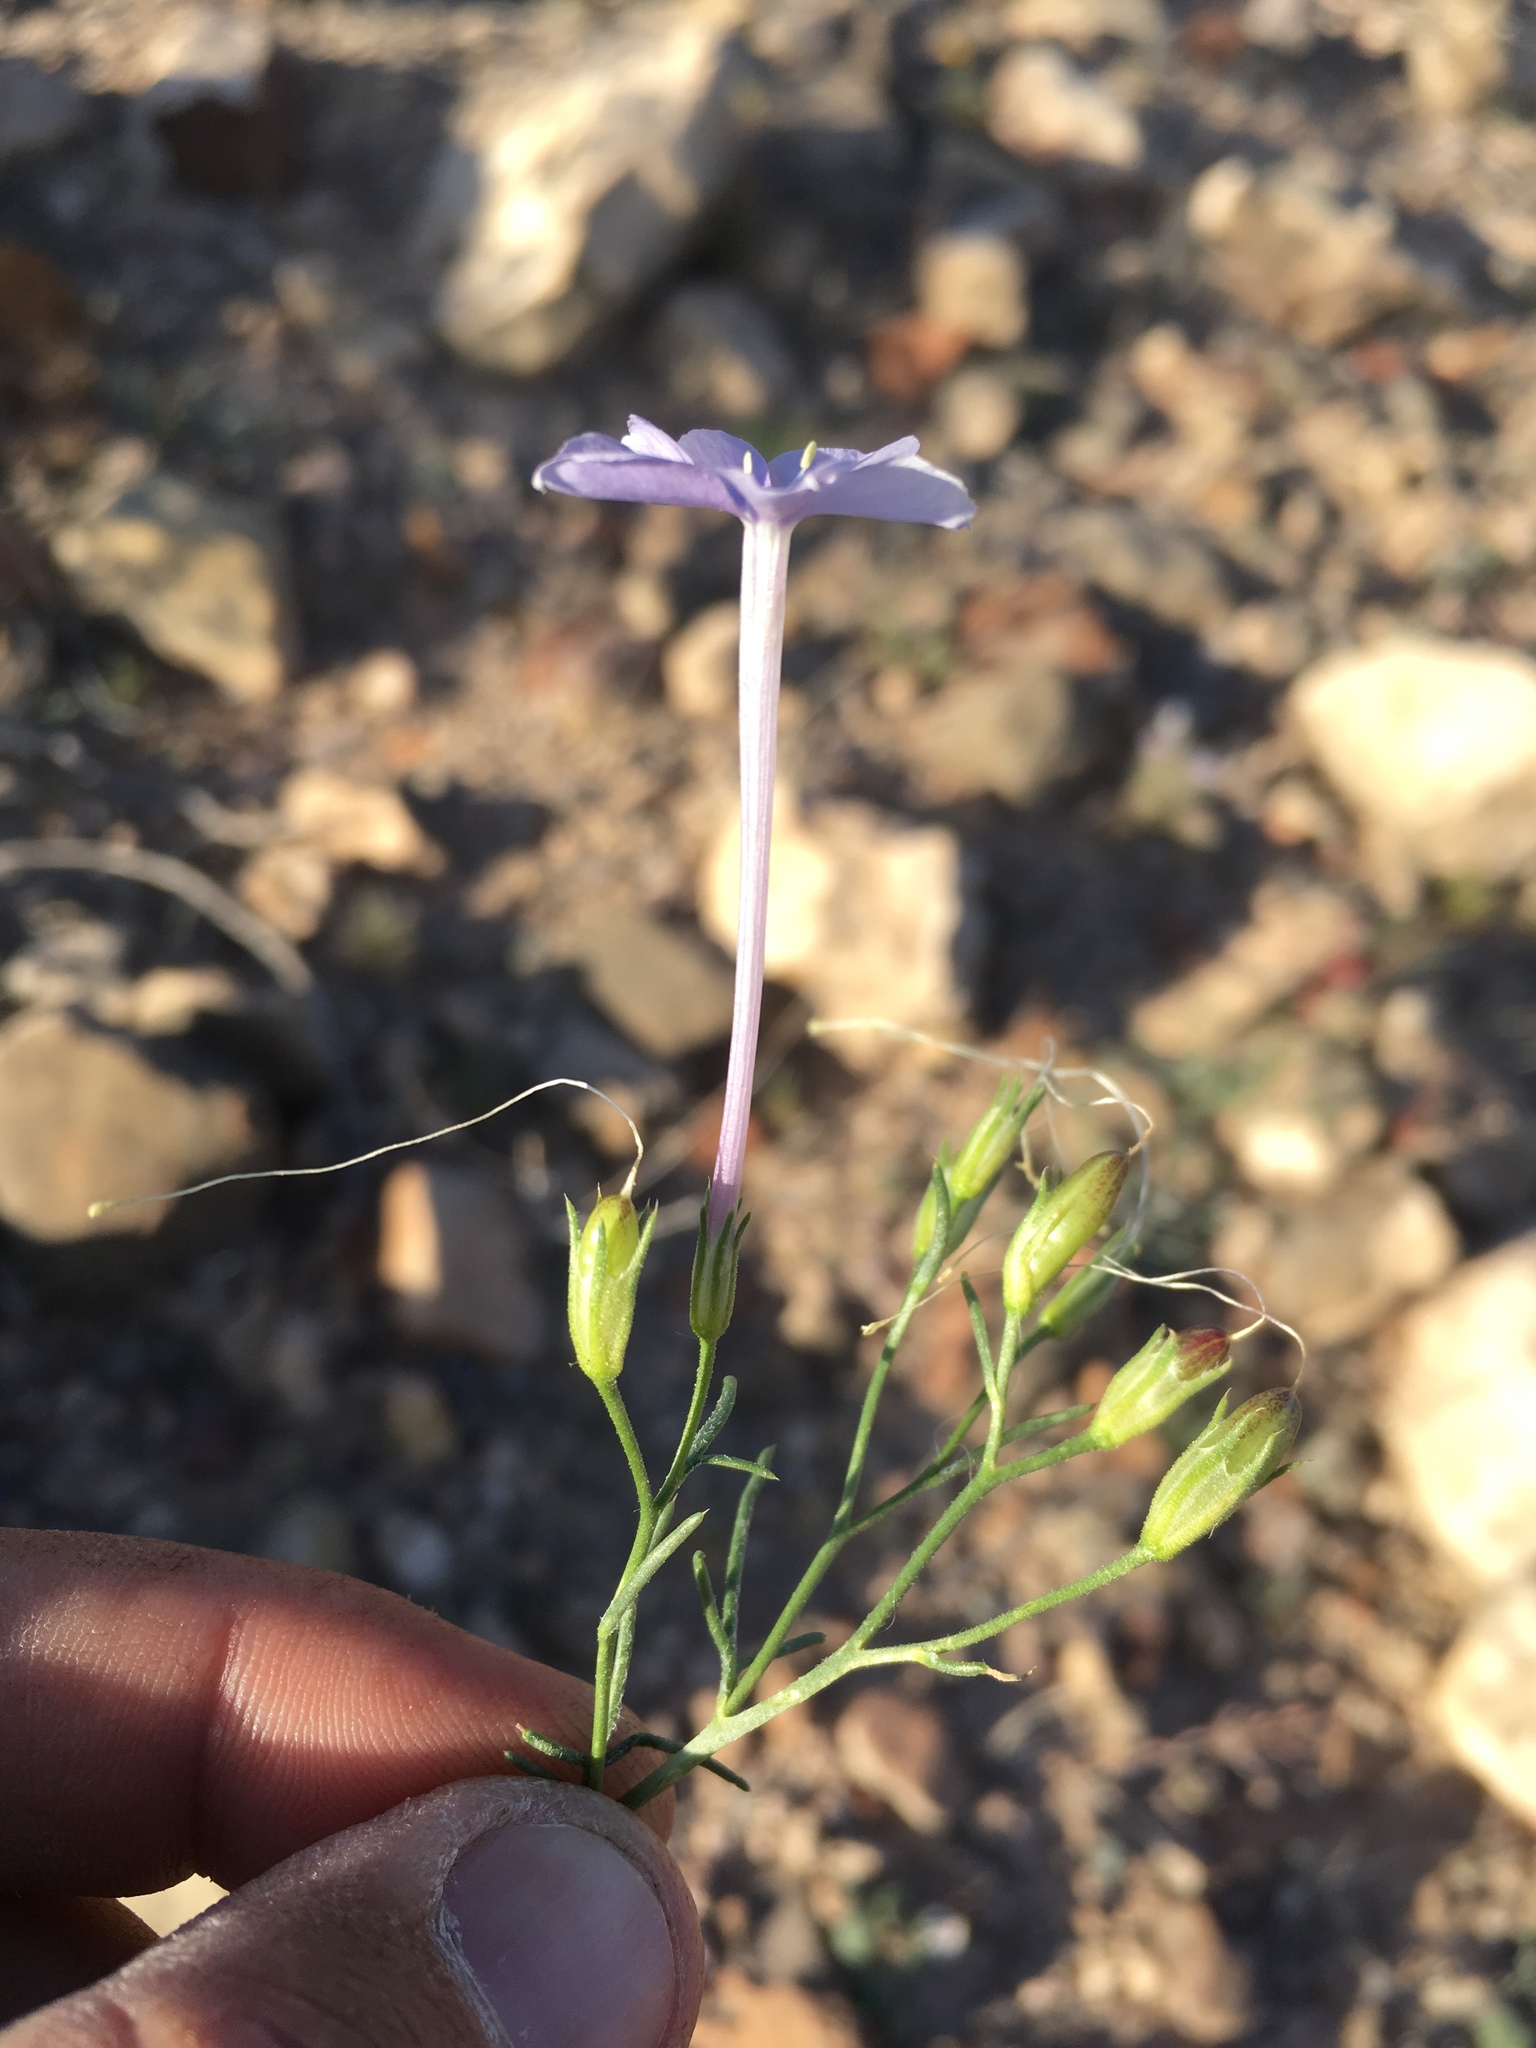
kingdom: Plantae
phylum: Tracheophyta
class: Magnoliopsida
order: Ericales
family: Polemoniaceae
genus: Ipomopsis
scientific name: Ipomopsis longiflora
